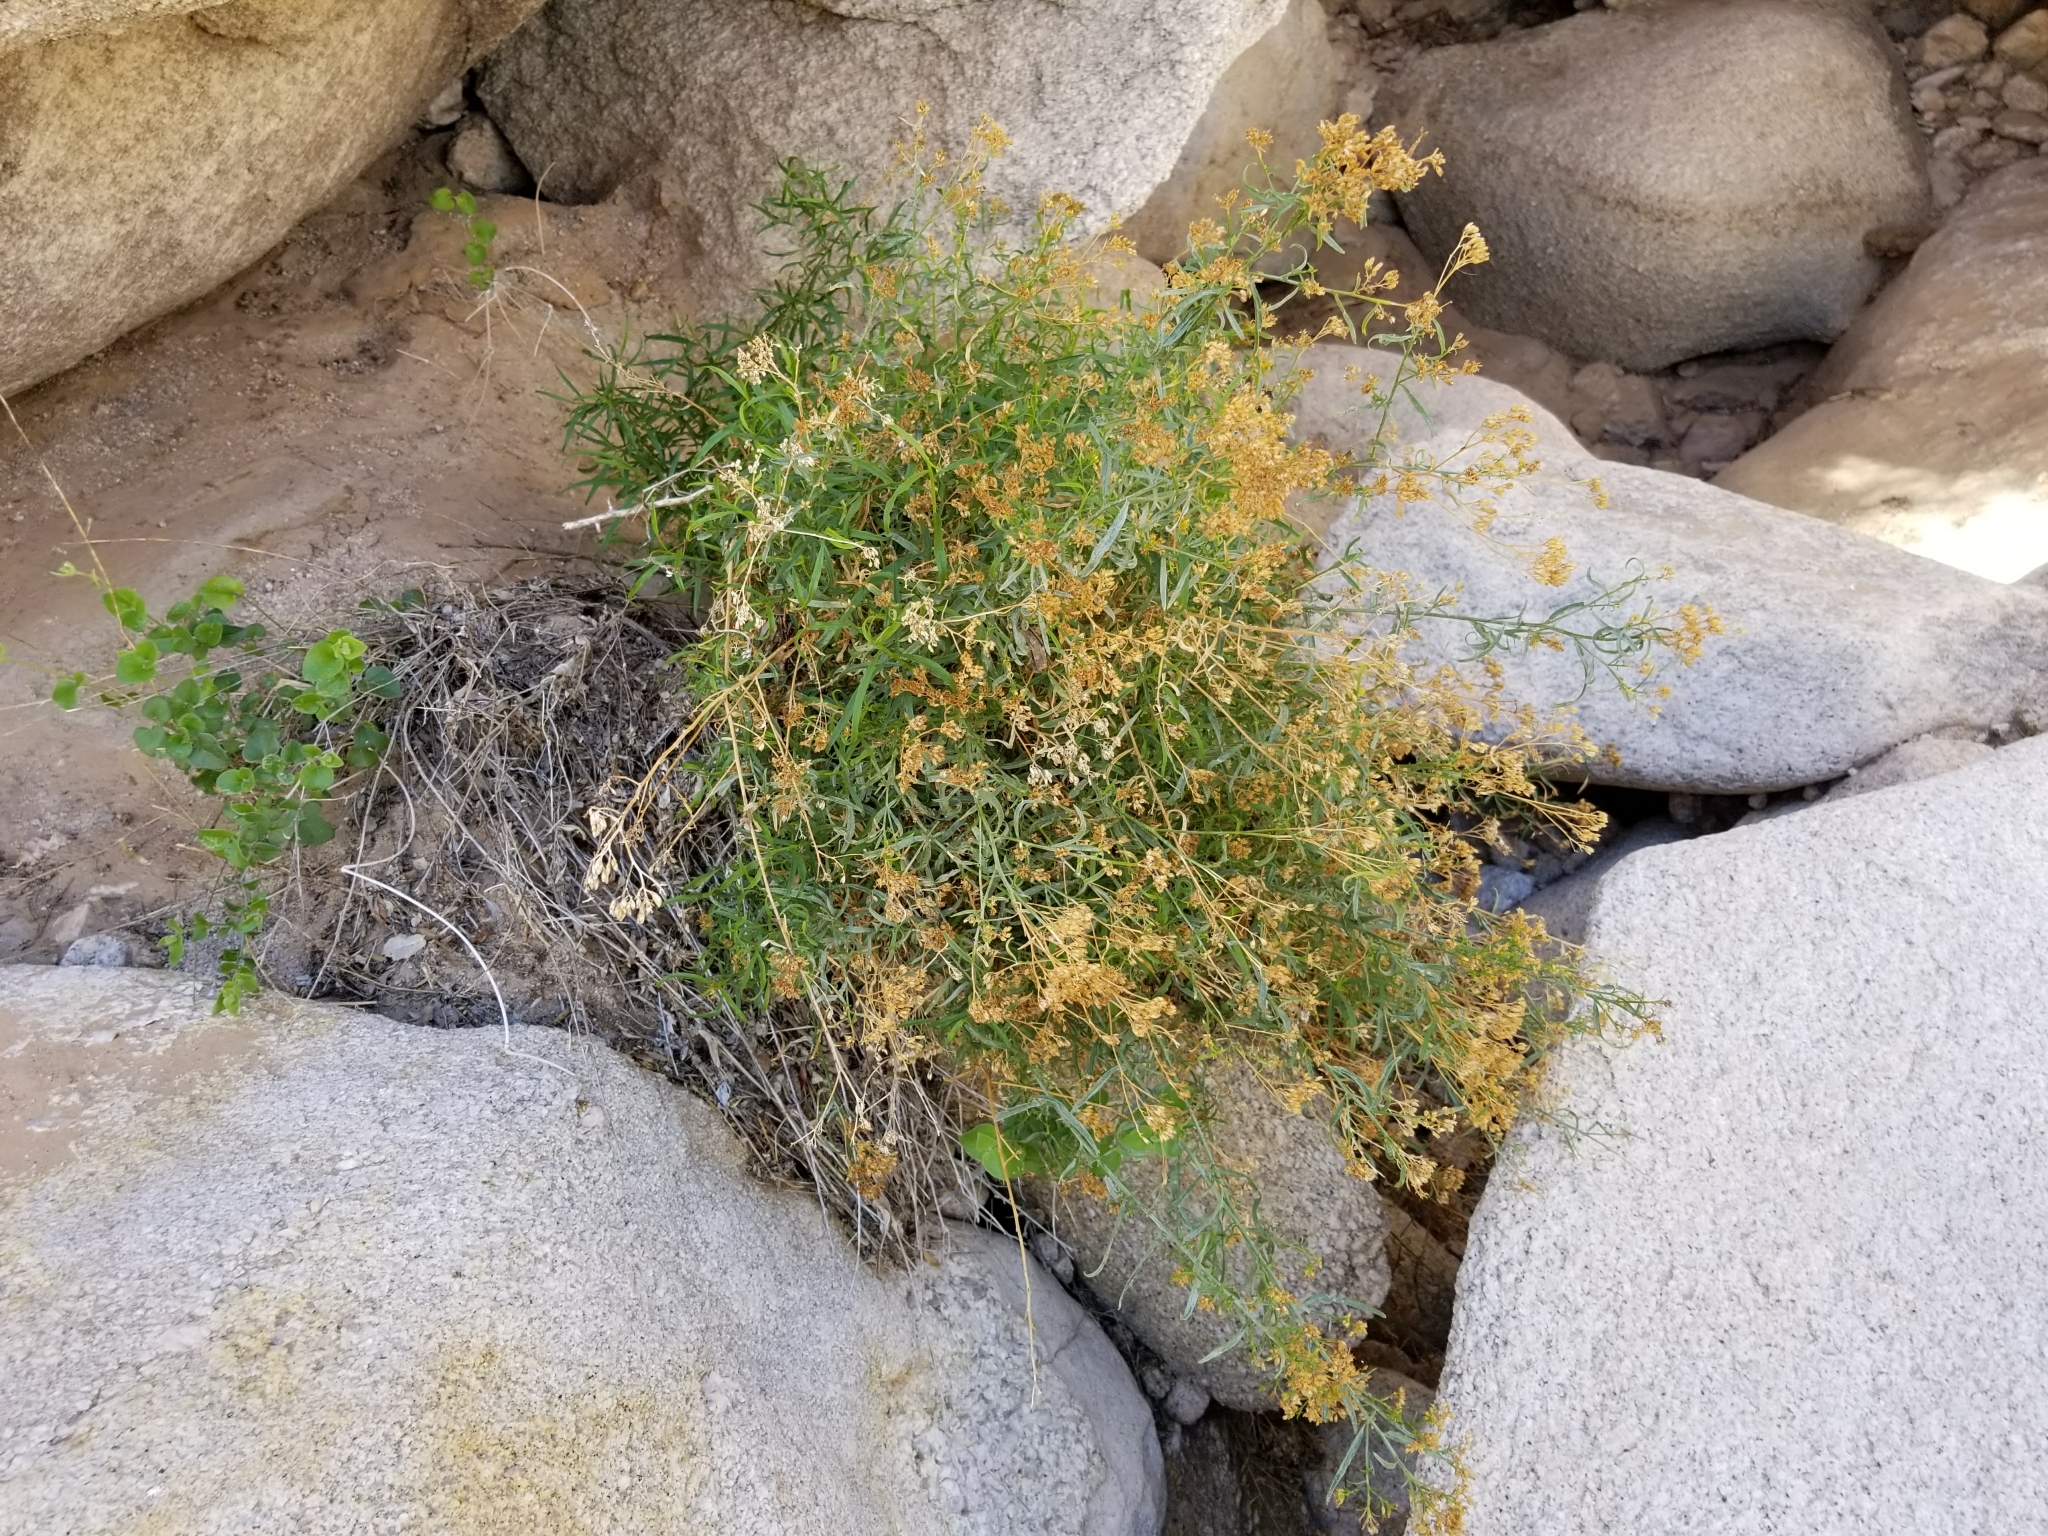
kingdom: Plantae
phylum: Tracheophyta
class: Magnoliopsida
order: Asterales
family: Asteraceae
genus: Gutierrezia
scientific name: Gutierrezia sarothrae
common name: Broom snakeweed
